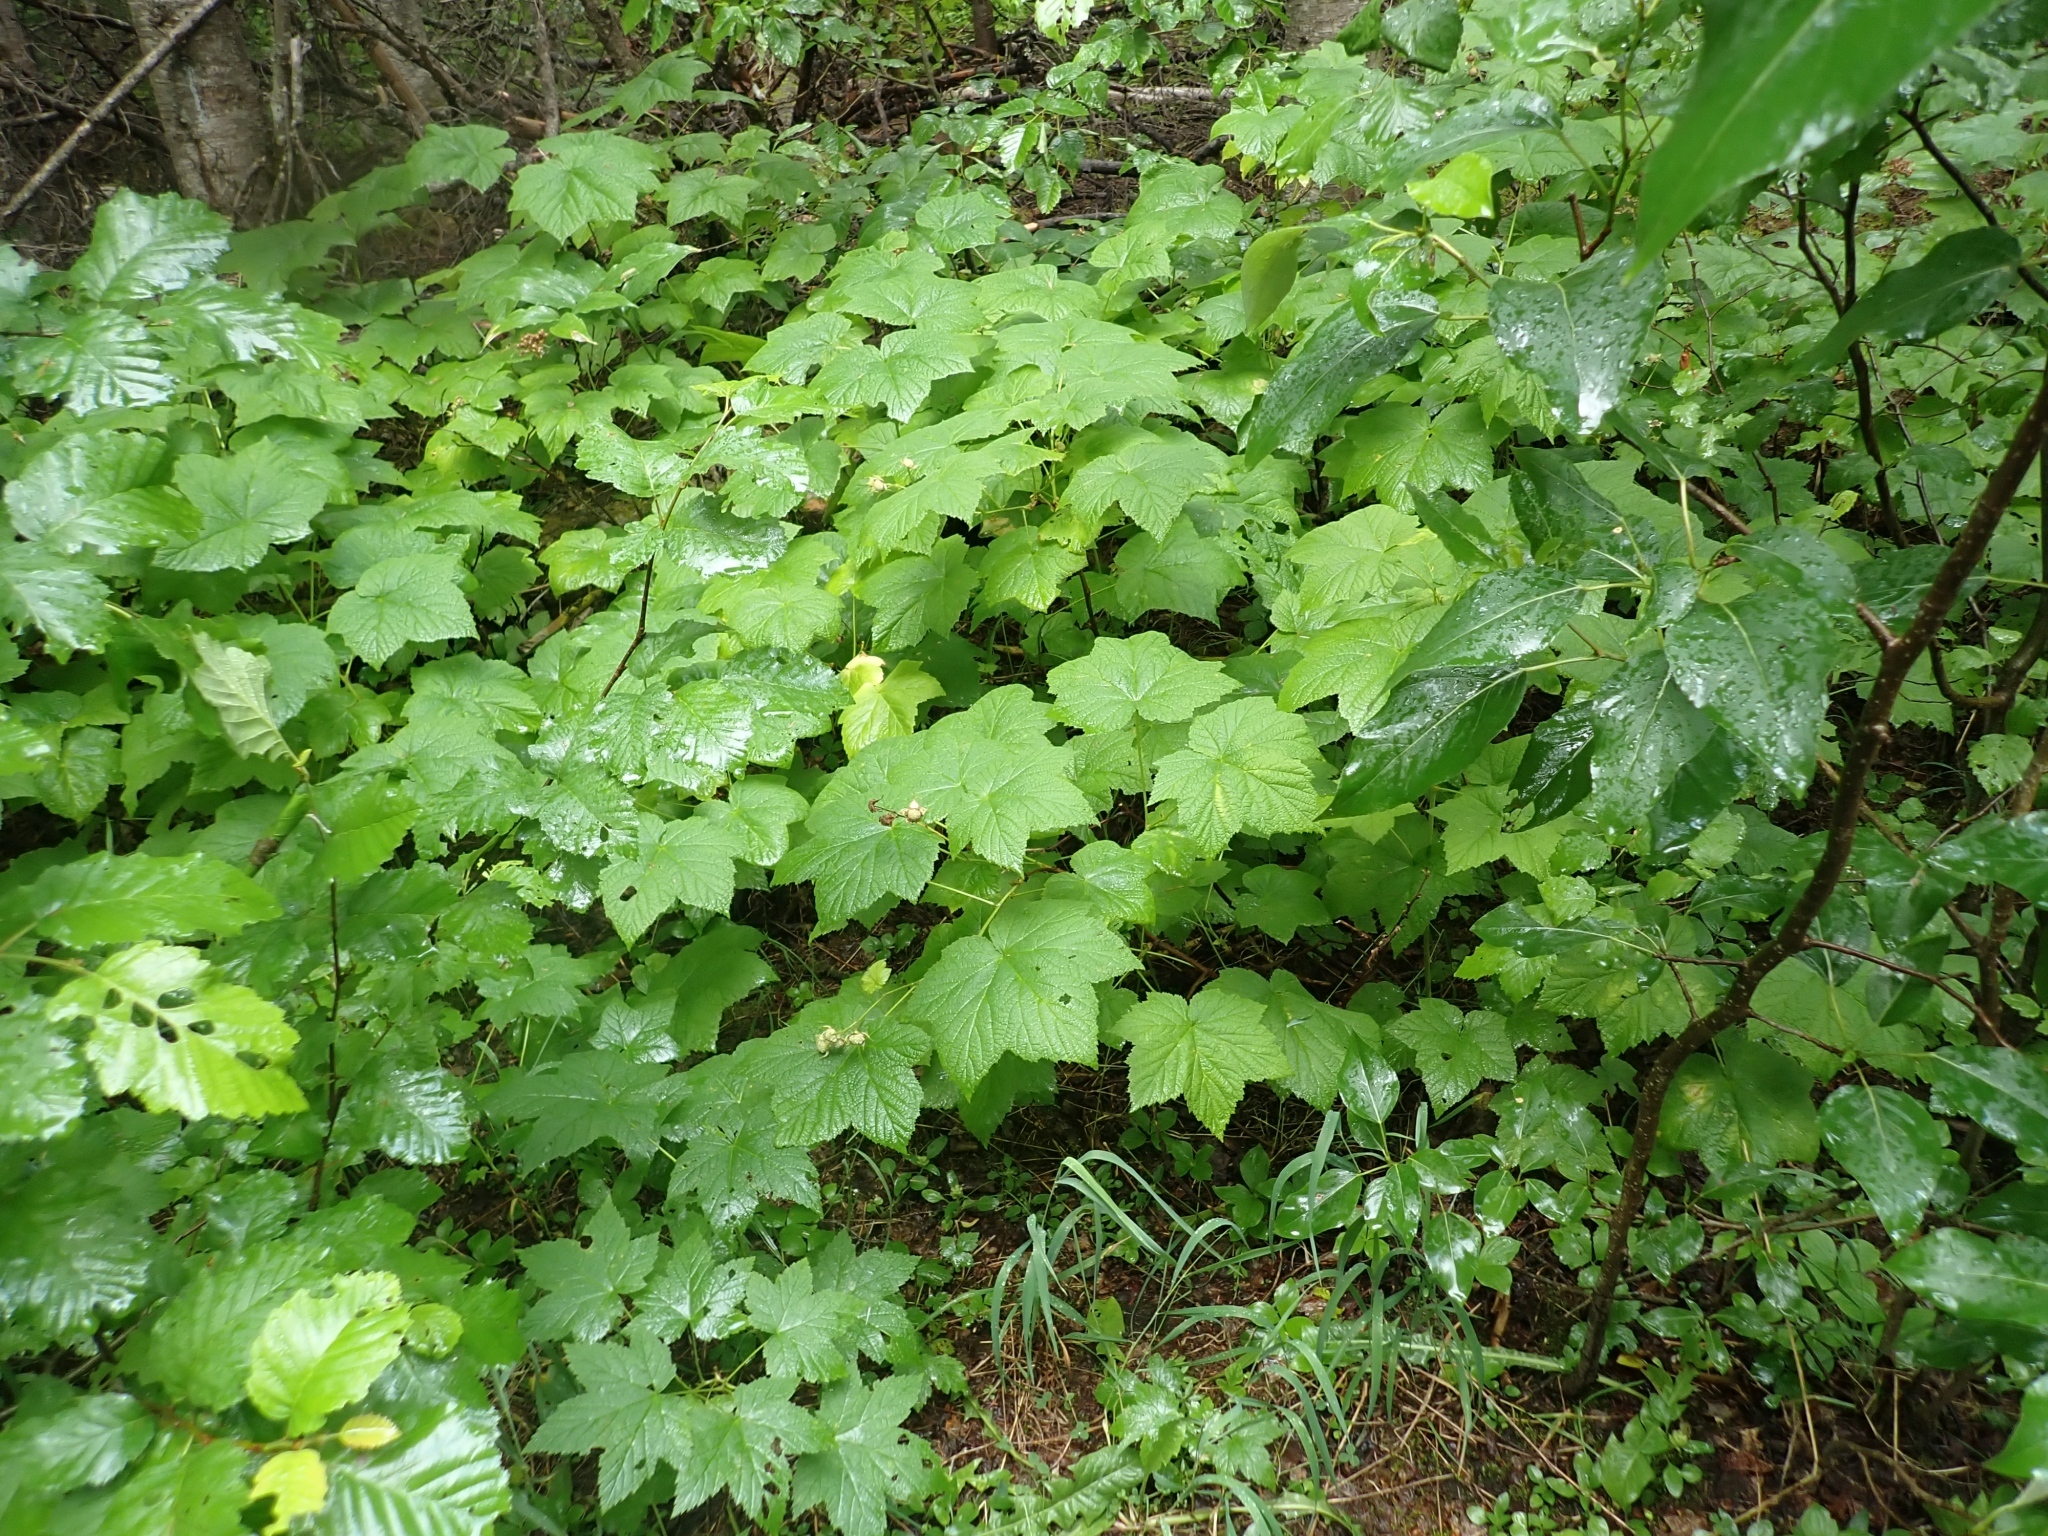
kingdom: Plantae
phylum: Tracheophyta
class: Magnoliopsida
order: Rosales
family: Rosaceae
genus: Rubus
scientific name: Rubus parviflorus
